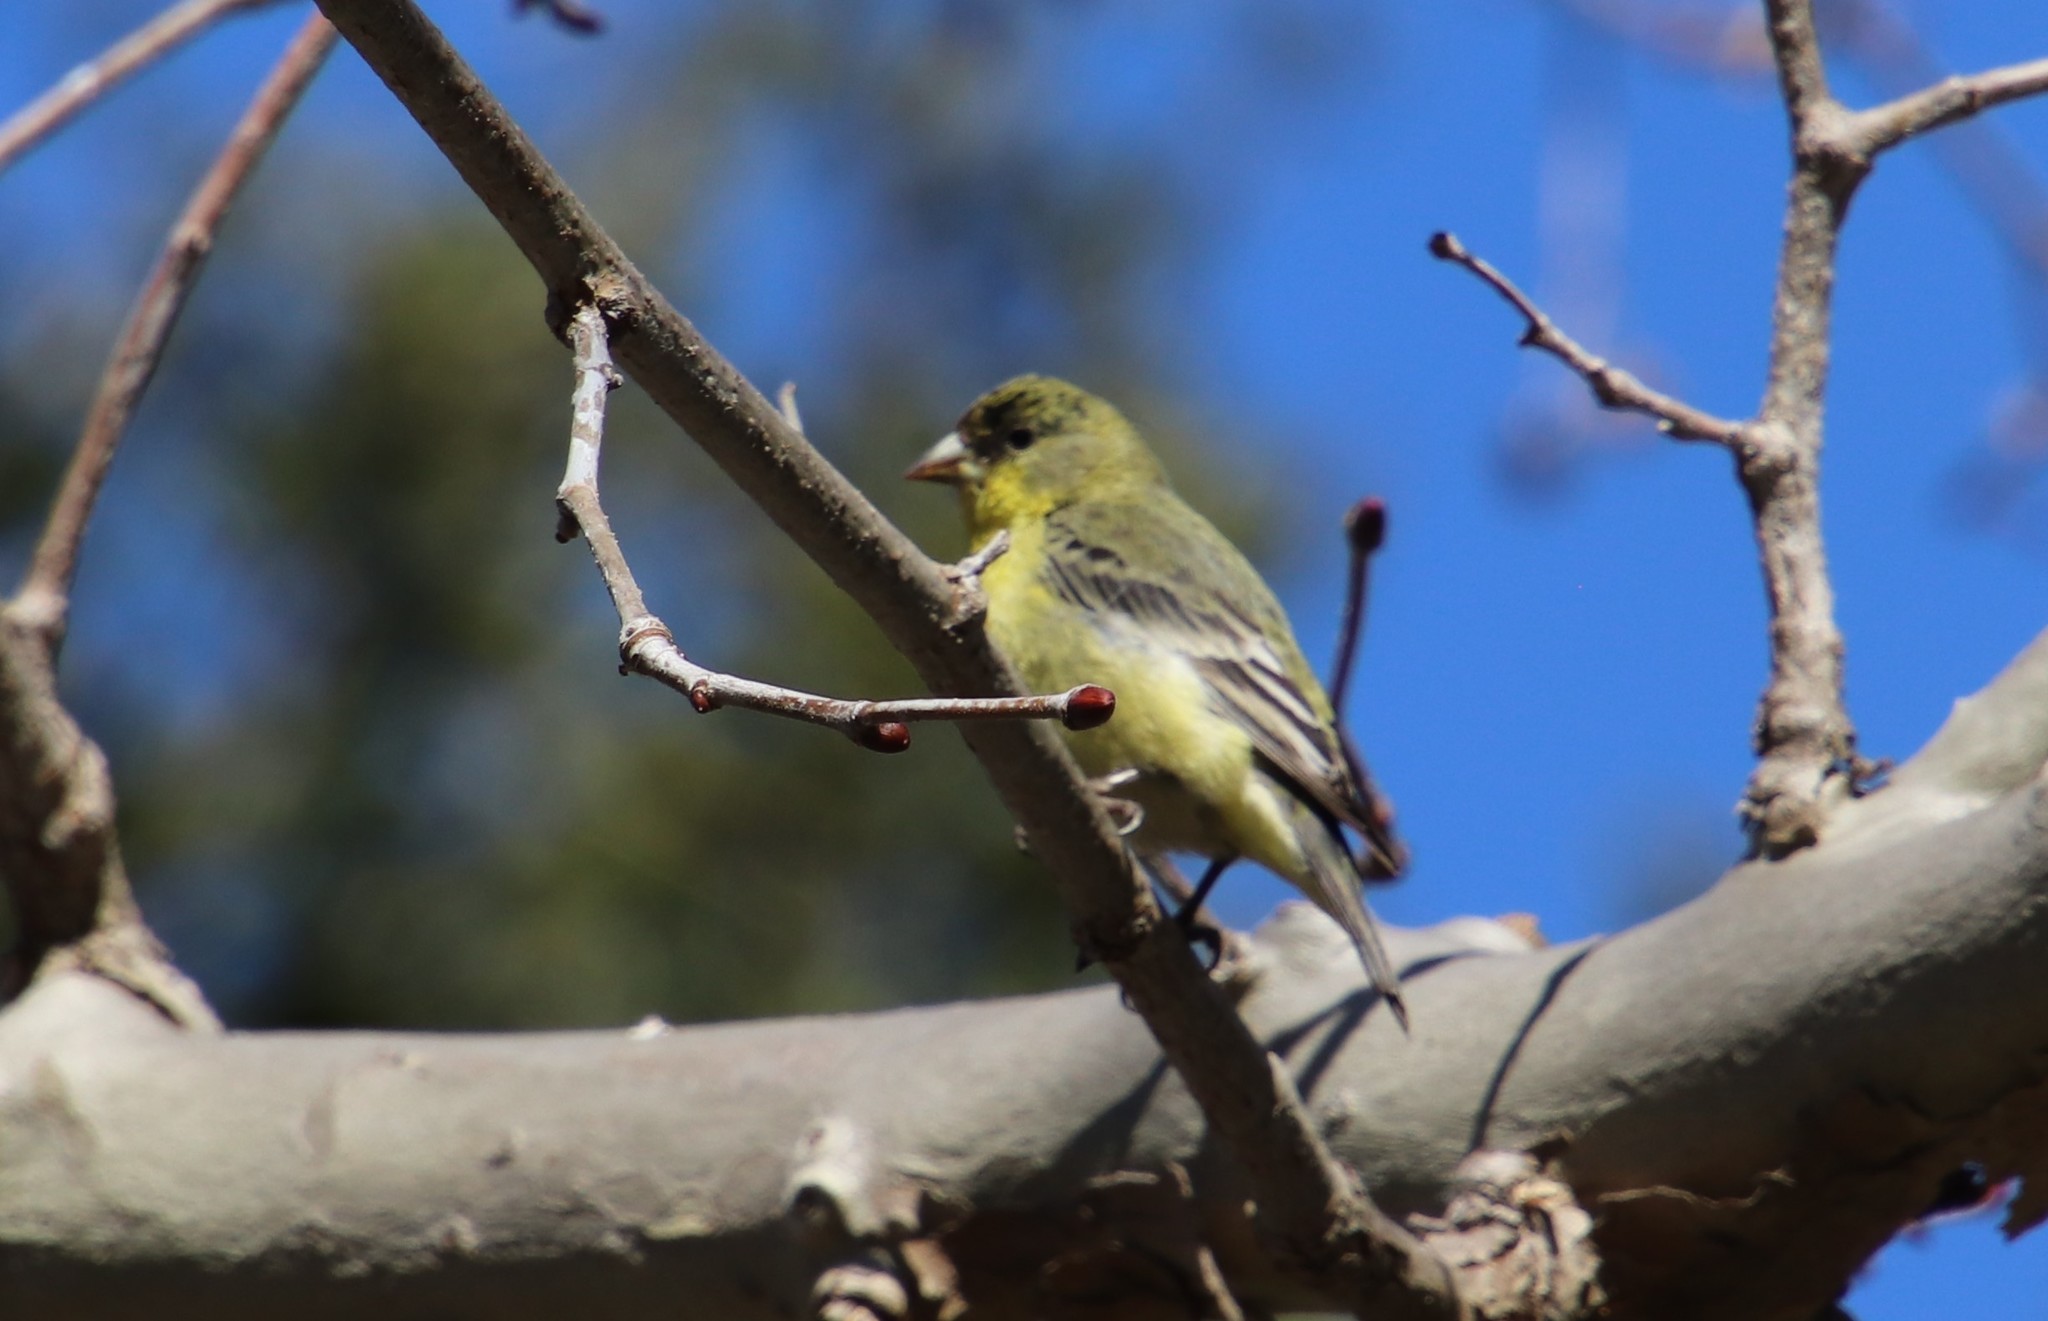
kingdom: Animalia
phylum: Chordata
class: Aves
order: Passeriformes
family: Fringillidae
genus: Spinus
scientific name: Spinus psaltria
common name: Lesser goldfinch
